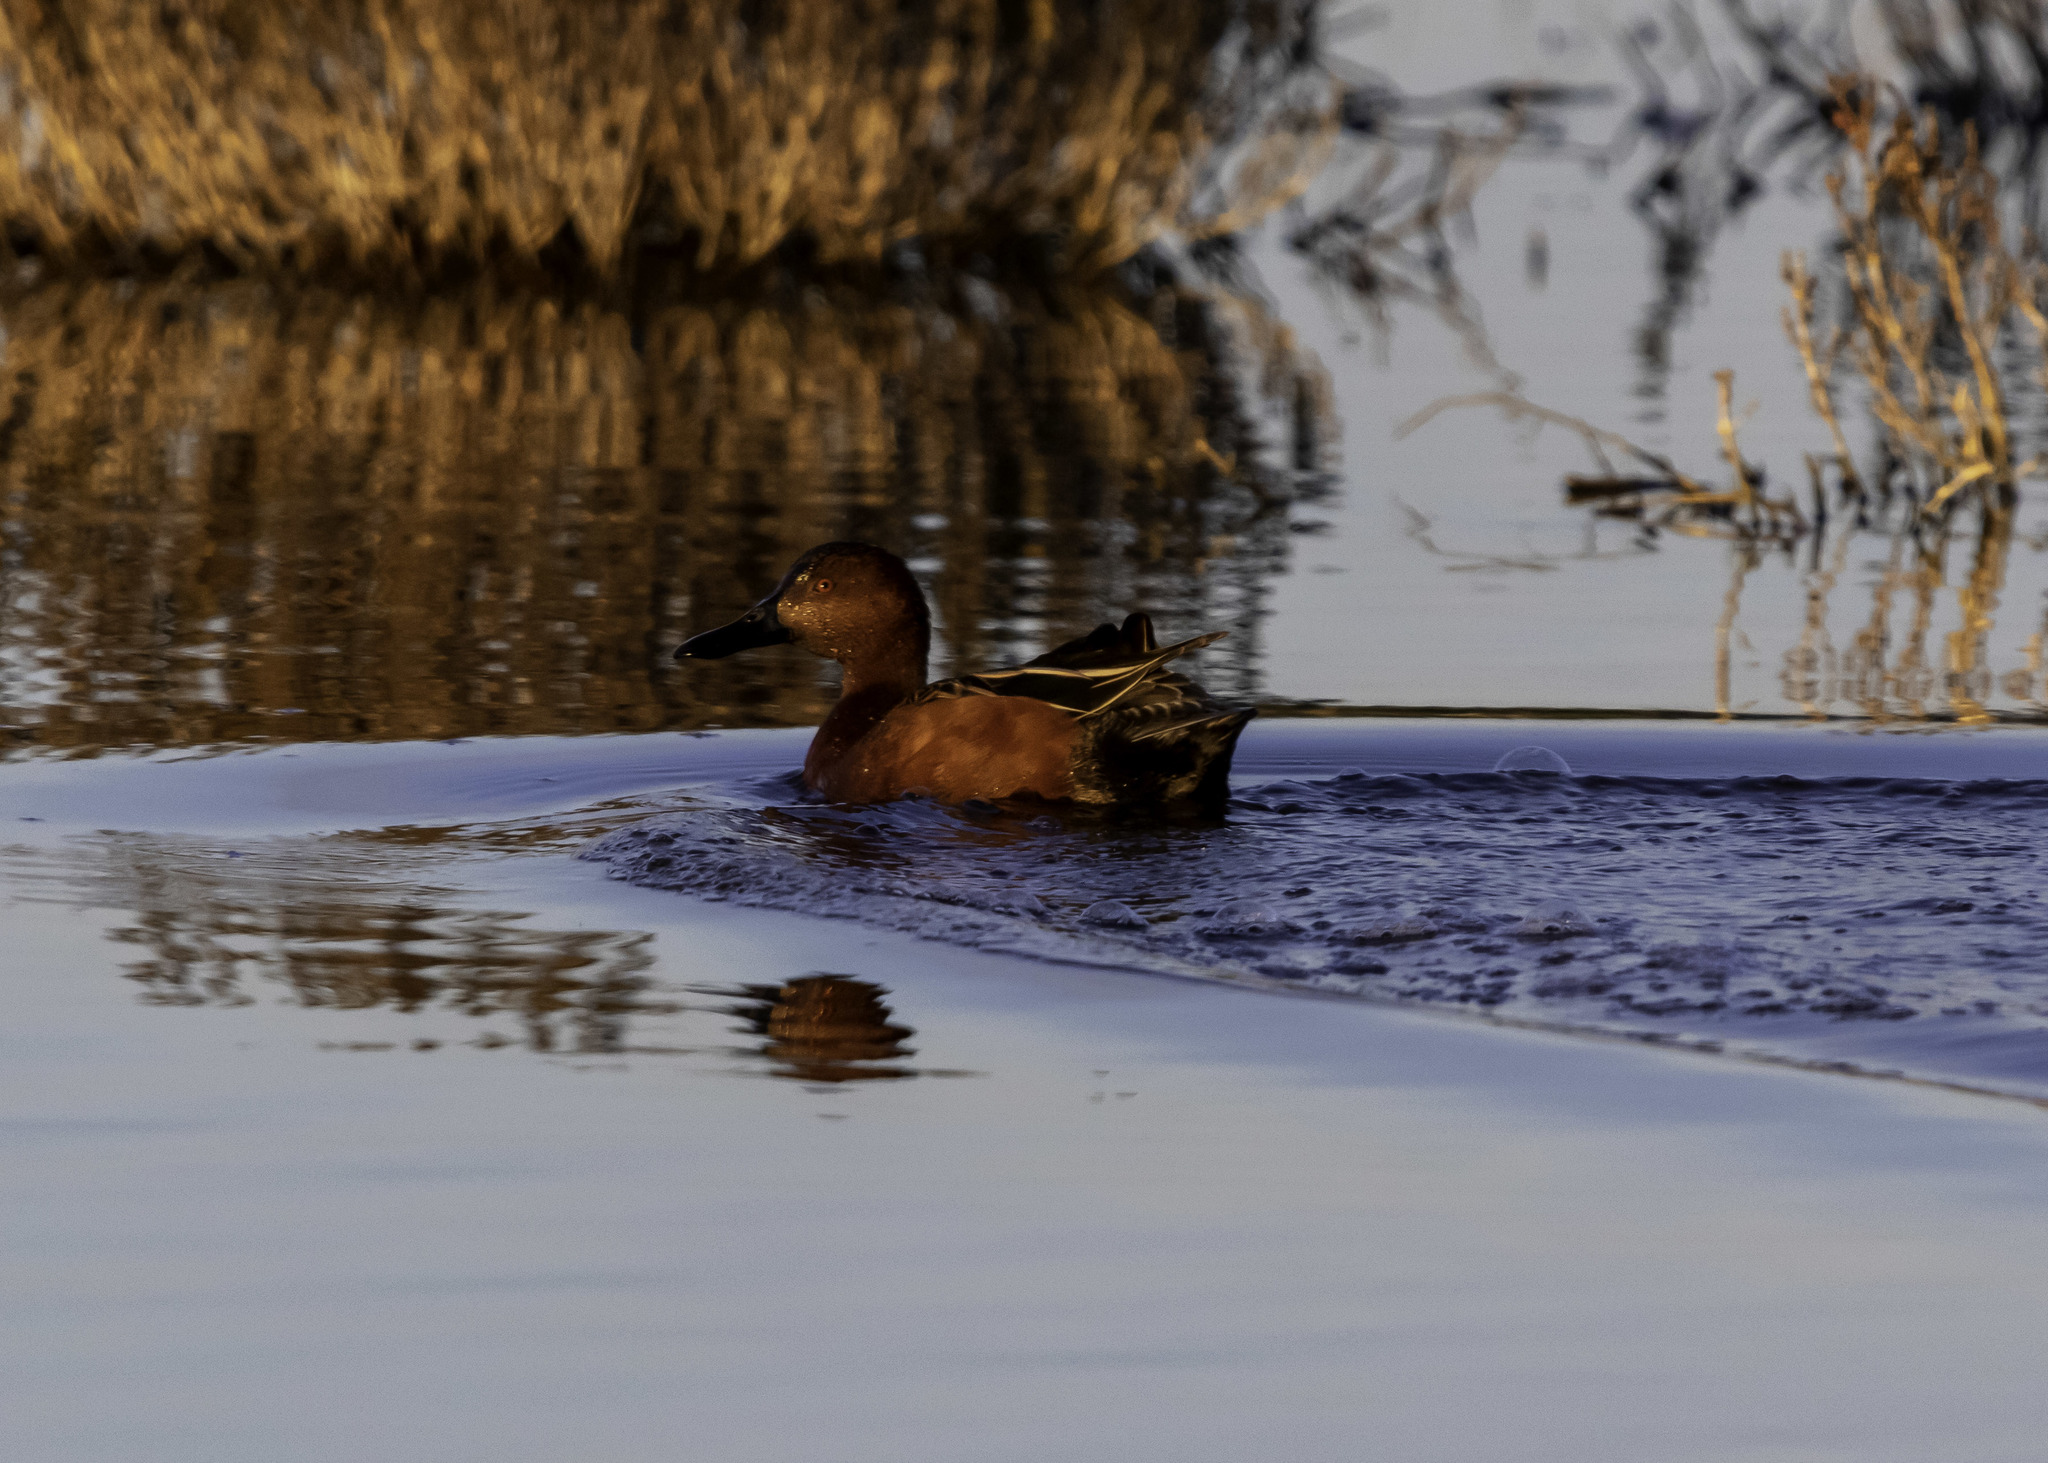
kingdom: Animalia
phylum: Chordata
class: Aves
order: Anseriformes
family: Anatidae
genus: Spatula
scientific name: Spatula cyanoptera
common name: Cinnamon teal
